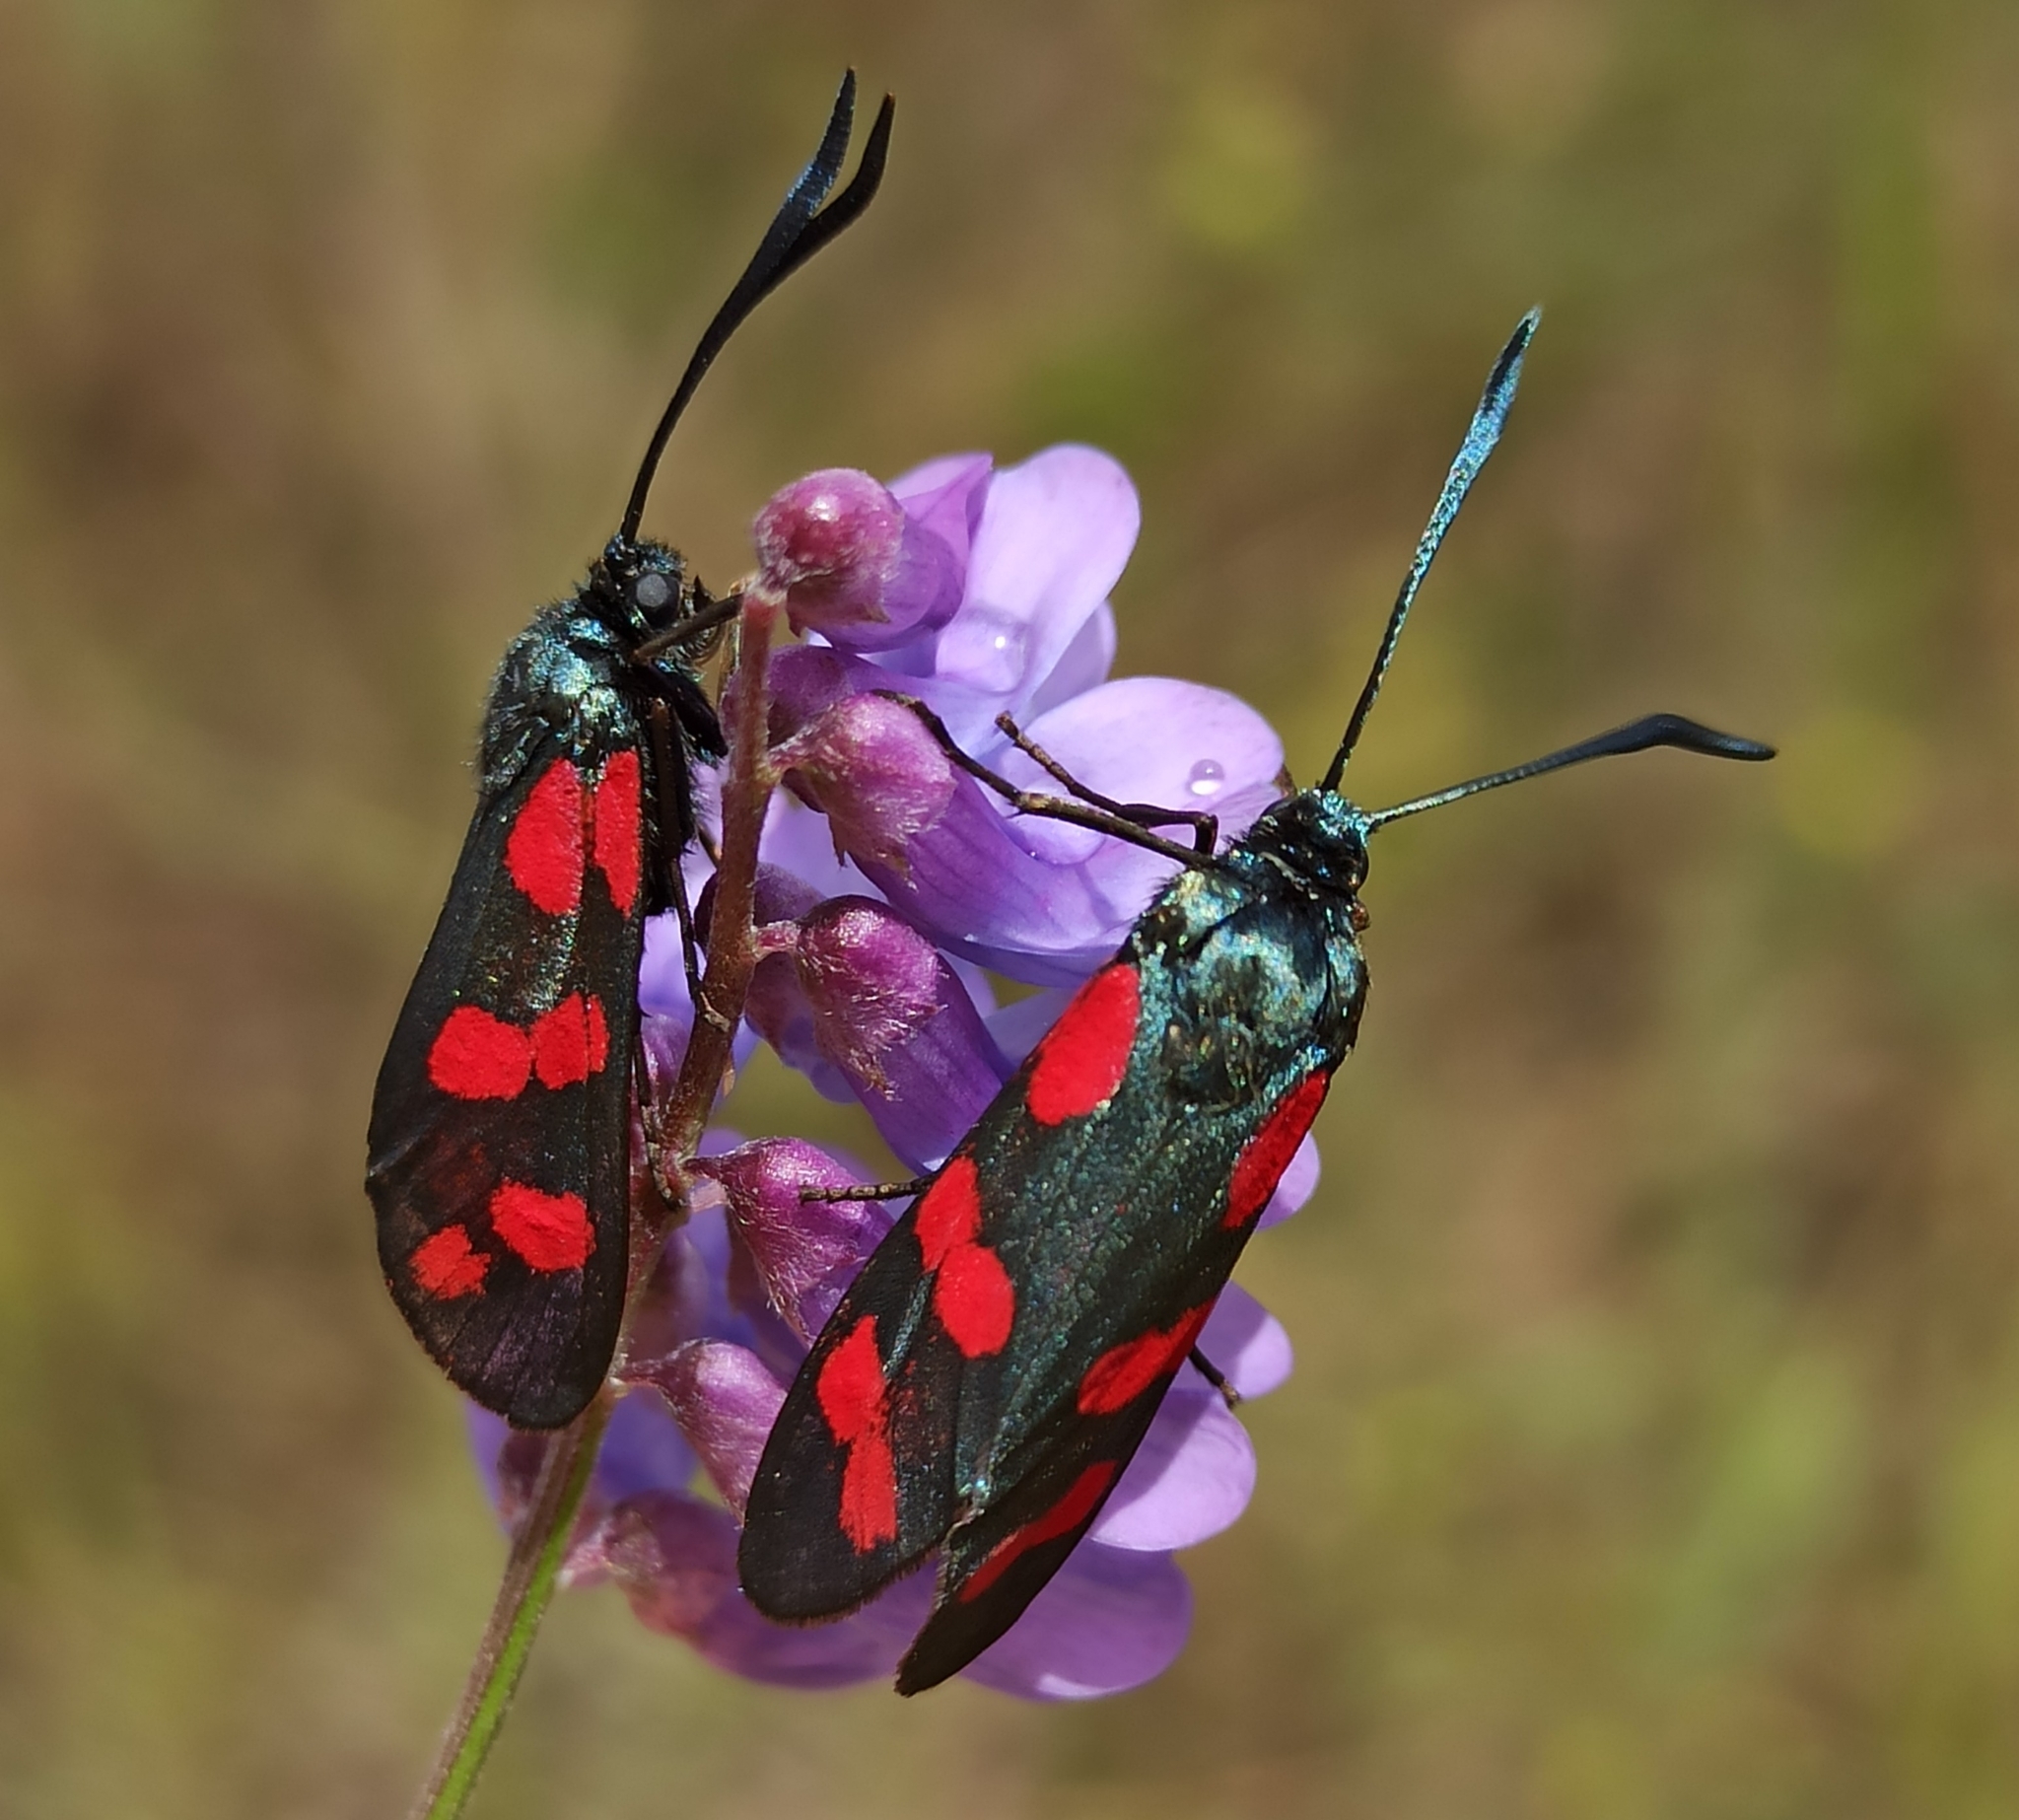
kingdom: Animalia
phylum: Arthropoda
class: Insecta
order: Lepidoptera
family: Zygaenidae
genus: Zygaena
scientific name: Zygaena filipendulae
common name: Six-spot burnet
